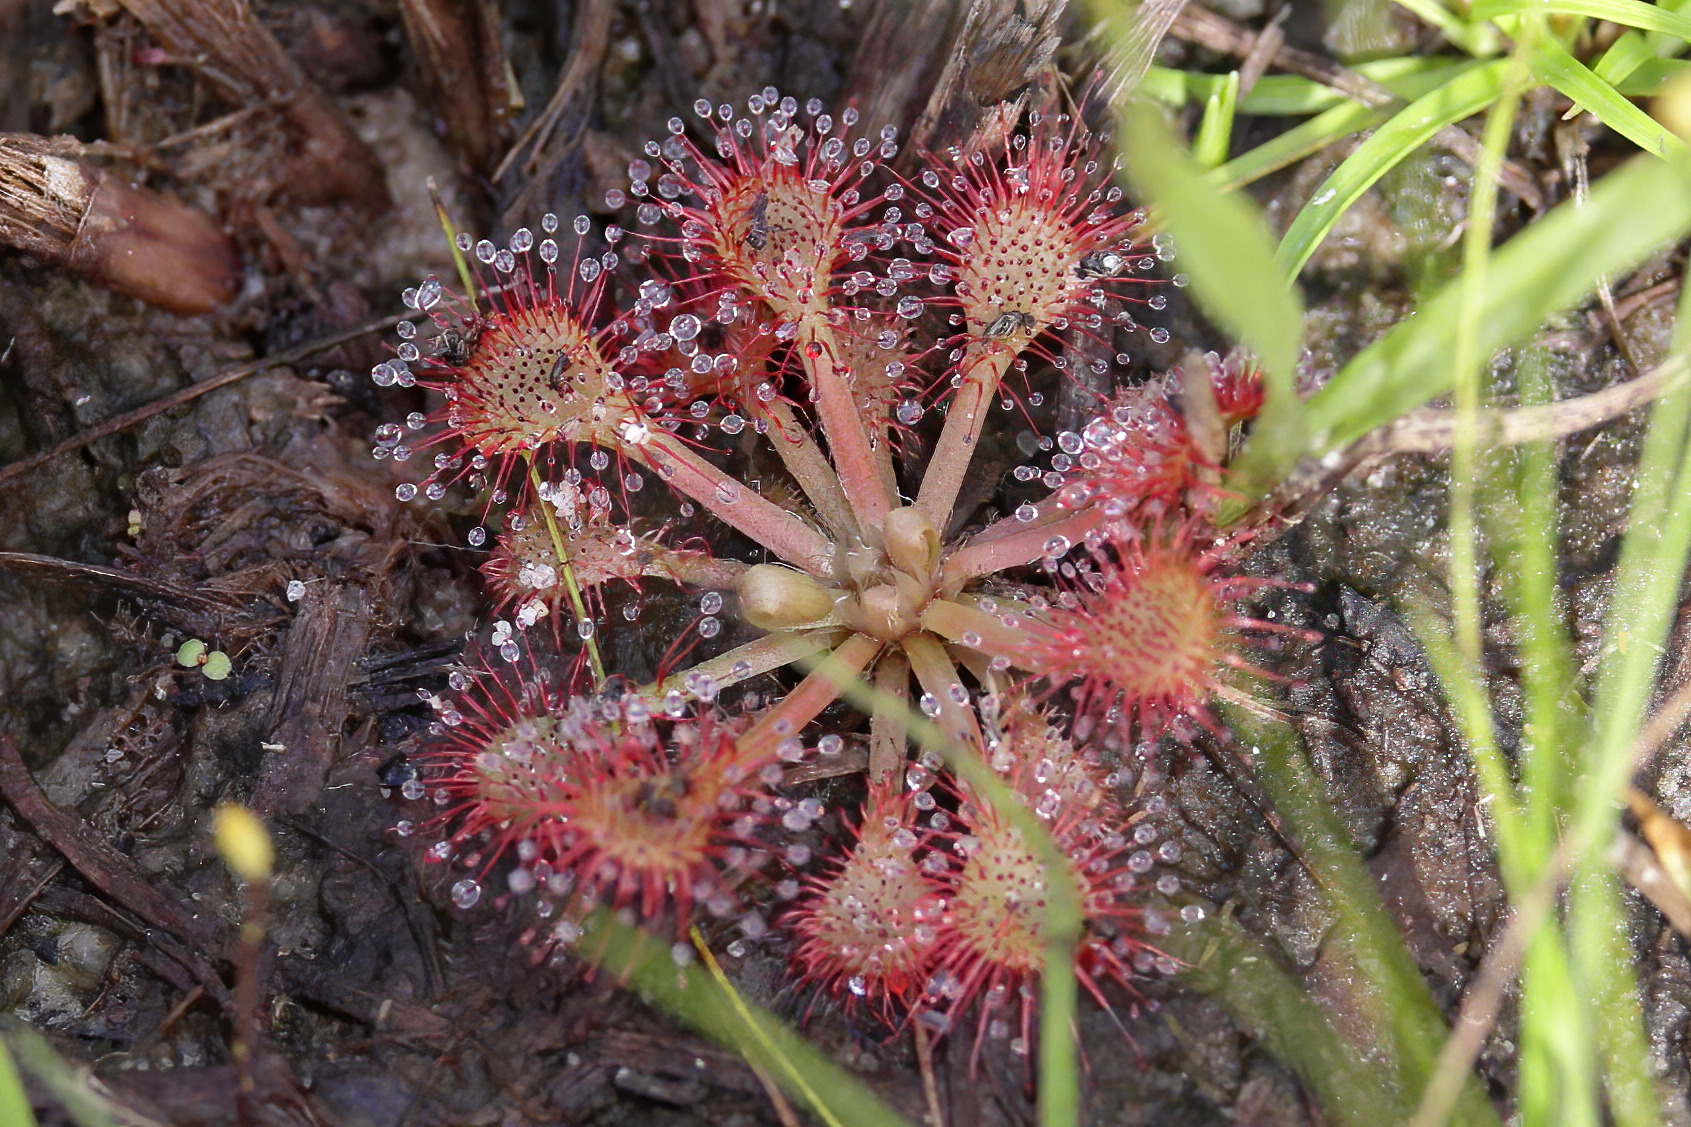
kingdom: Plantae
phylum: Tracheophyta
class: Magnoliopsida
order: Caryophyllales
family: Droseraceae
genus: Drosera
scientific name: Drosera capillaris
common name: Pink sundew
